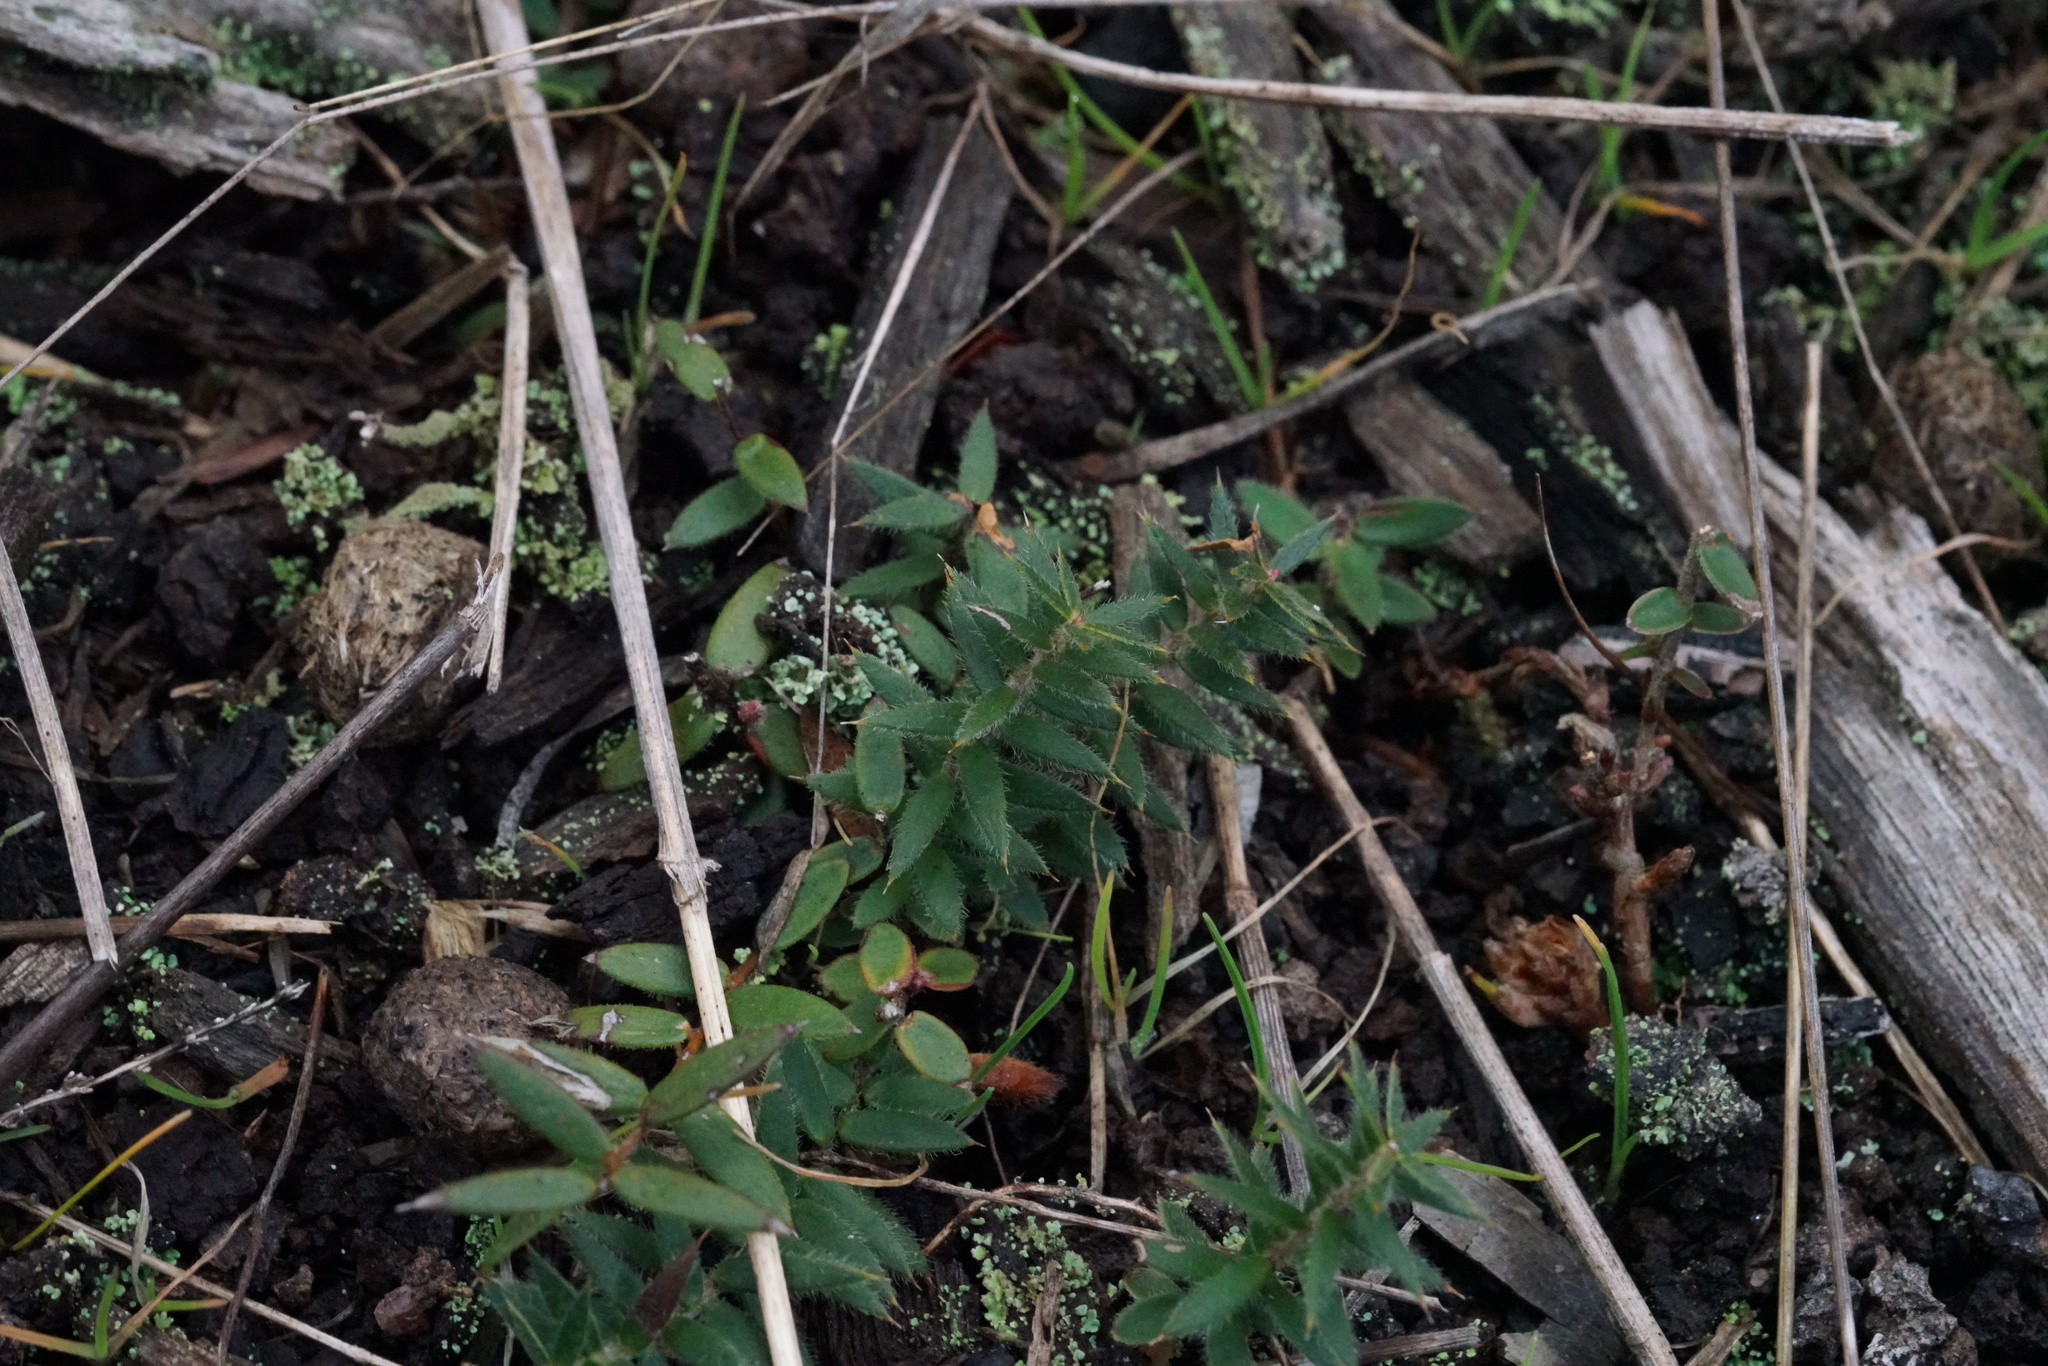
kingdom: Plantae
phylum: Tracheophyta
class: Magnoliopsida
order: Ericales
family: Ericaceae
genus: Acrotriche
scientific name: Acrotriche prostrata
